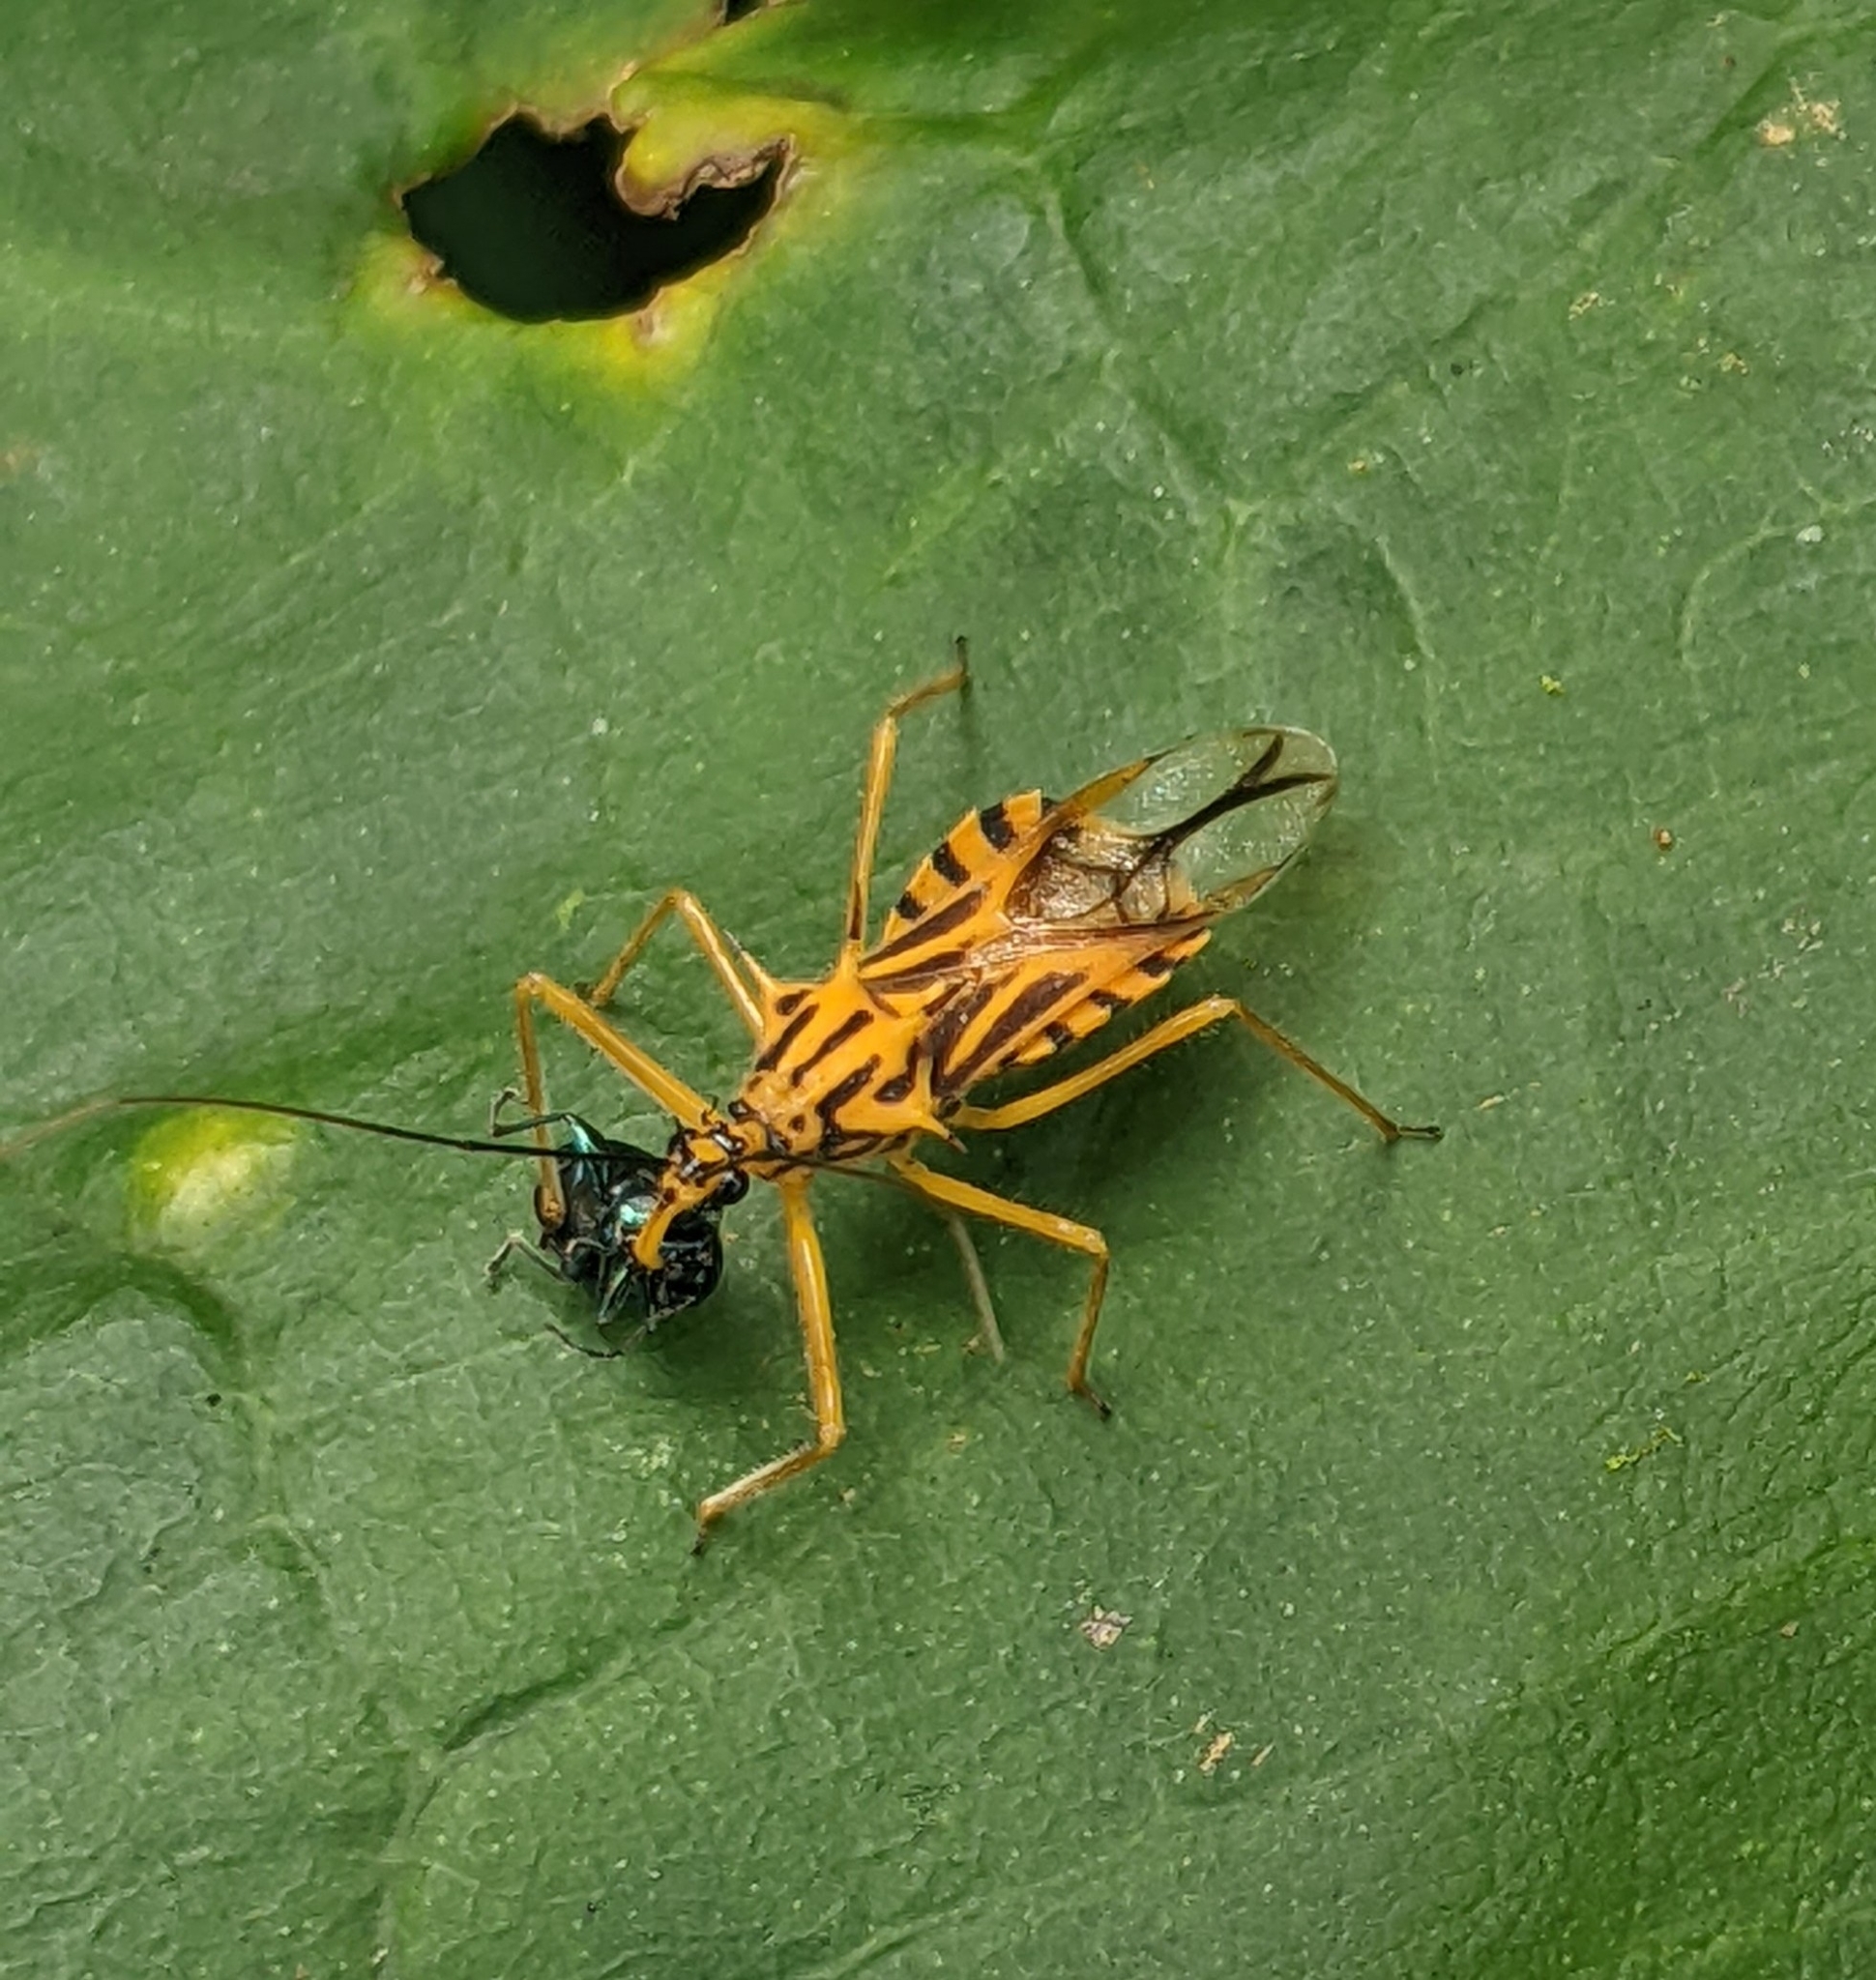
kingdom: Animalia
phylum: Arthropoda
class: Insecta
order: Hemiptera
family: Reduviidae
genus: Corcia
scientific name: Corcia columbica
